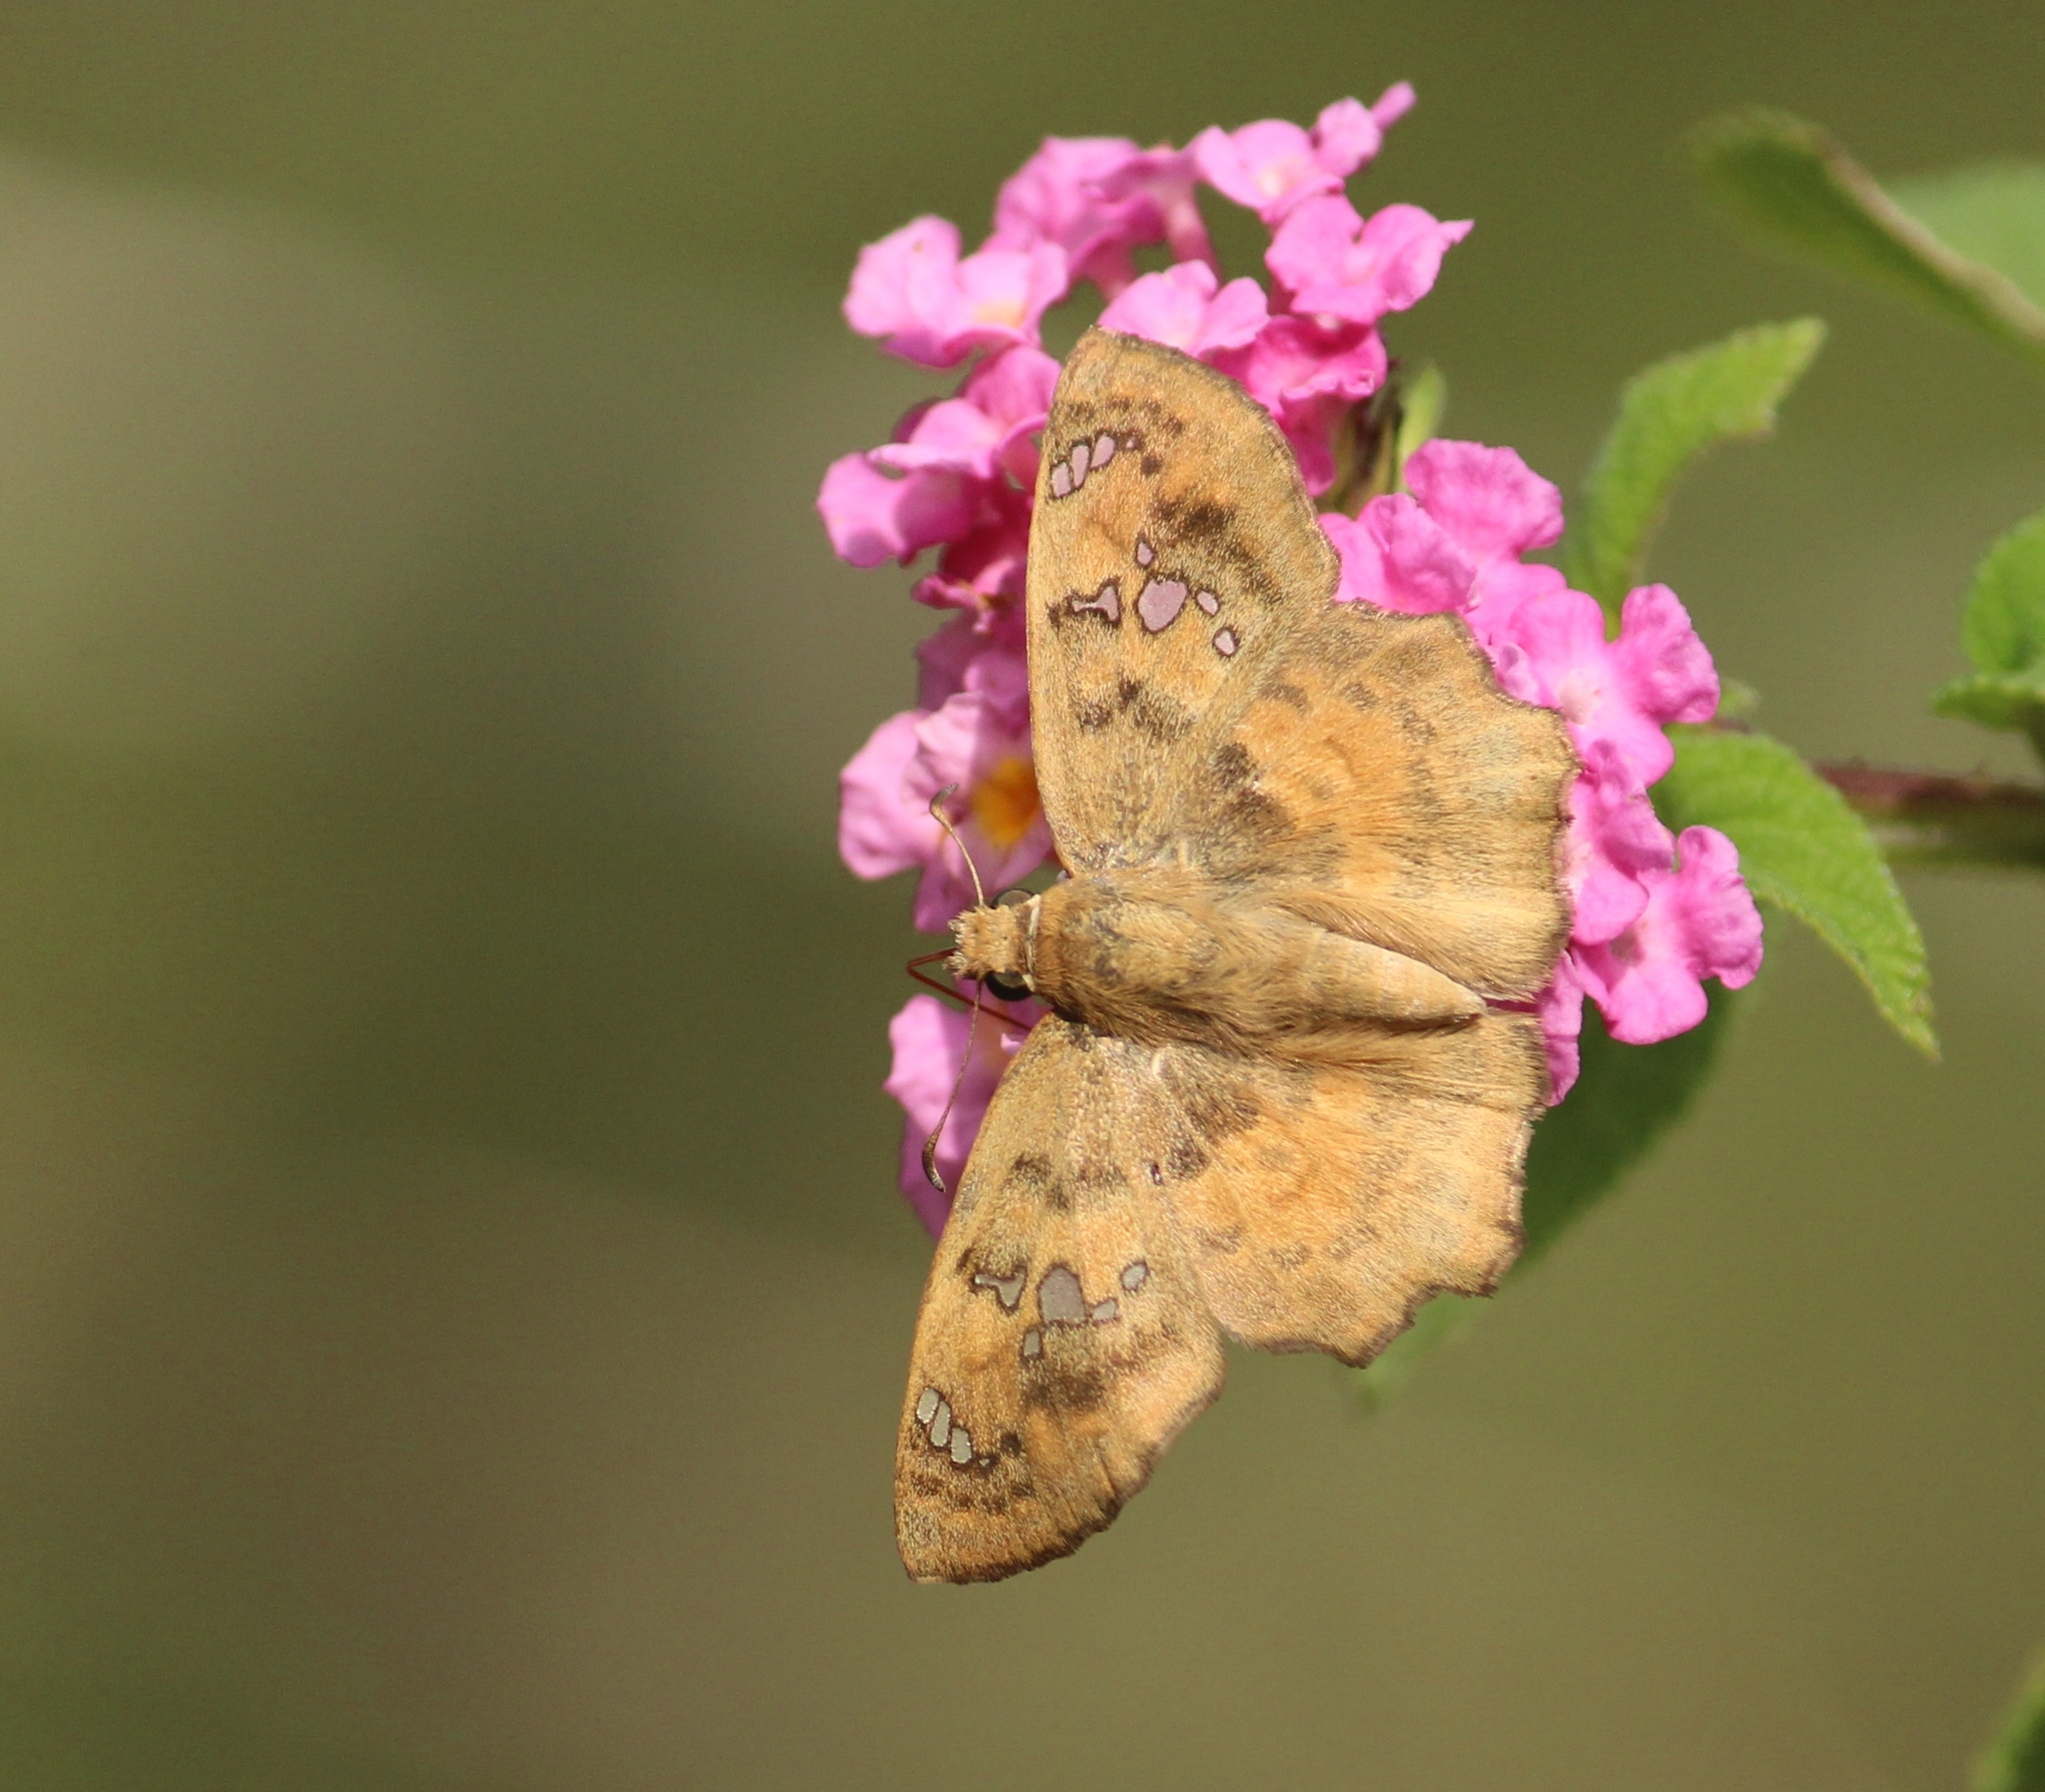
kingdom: Animalia
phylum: Arthropoda
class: Insecta
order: Lepidoptera
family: Hesperiidae
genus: Caprona
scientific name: Caprona ransonnettii
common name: Golden angle
